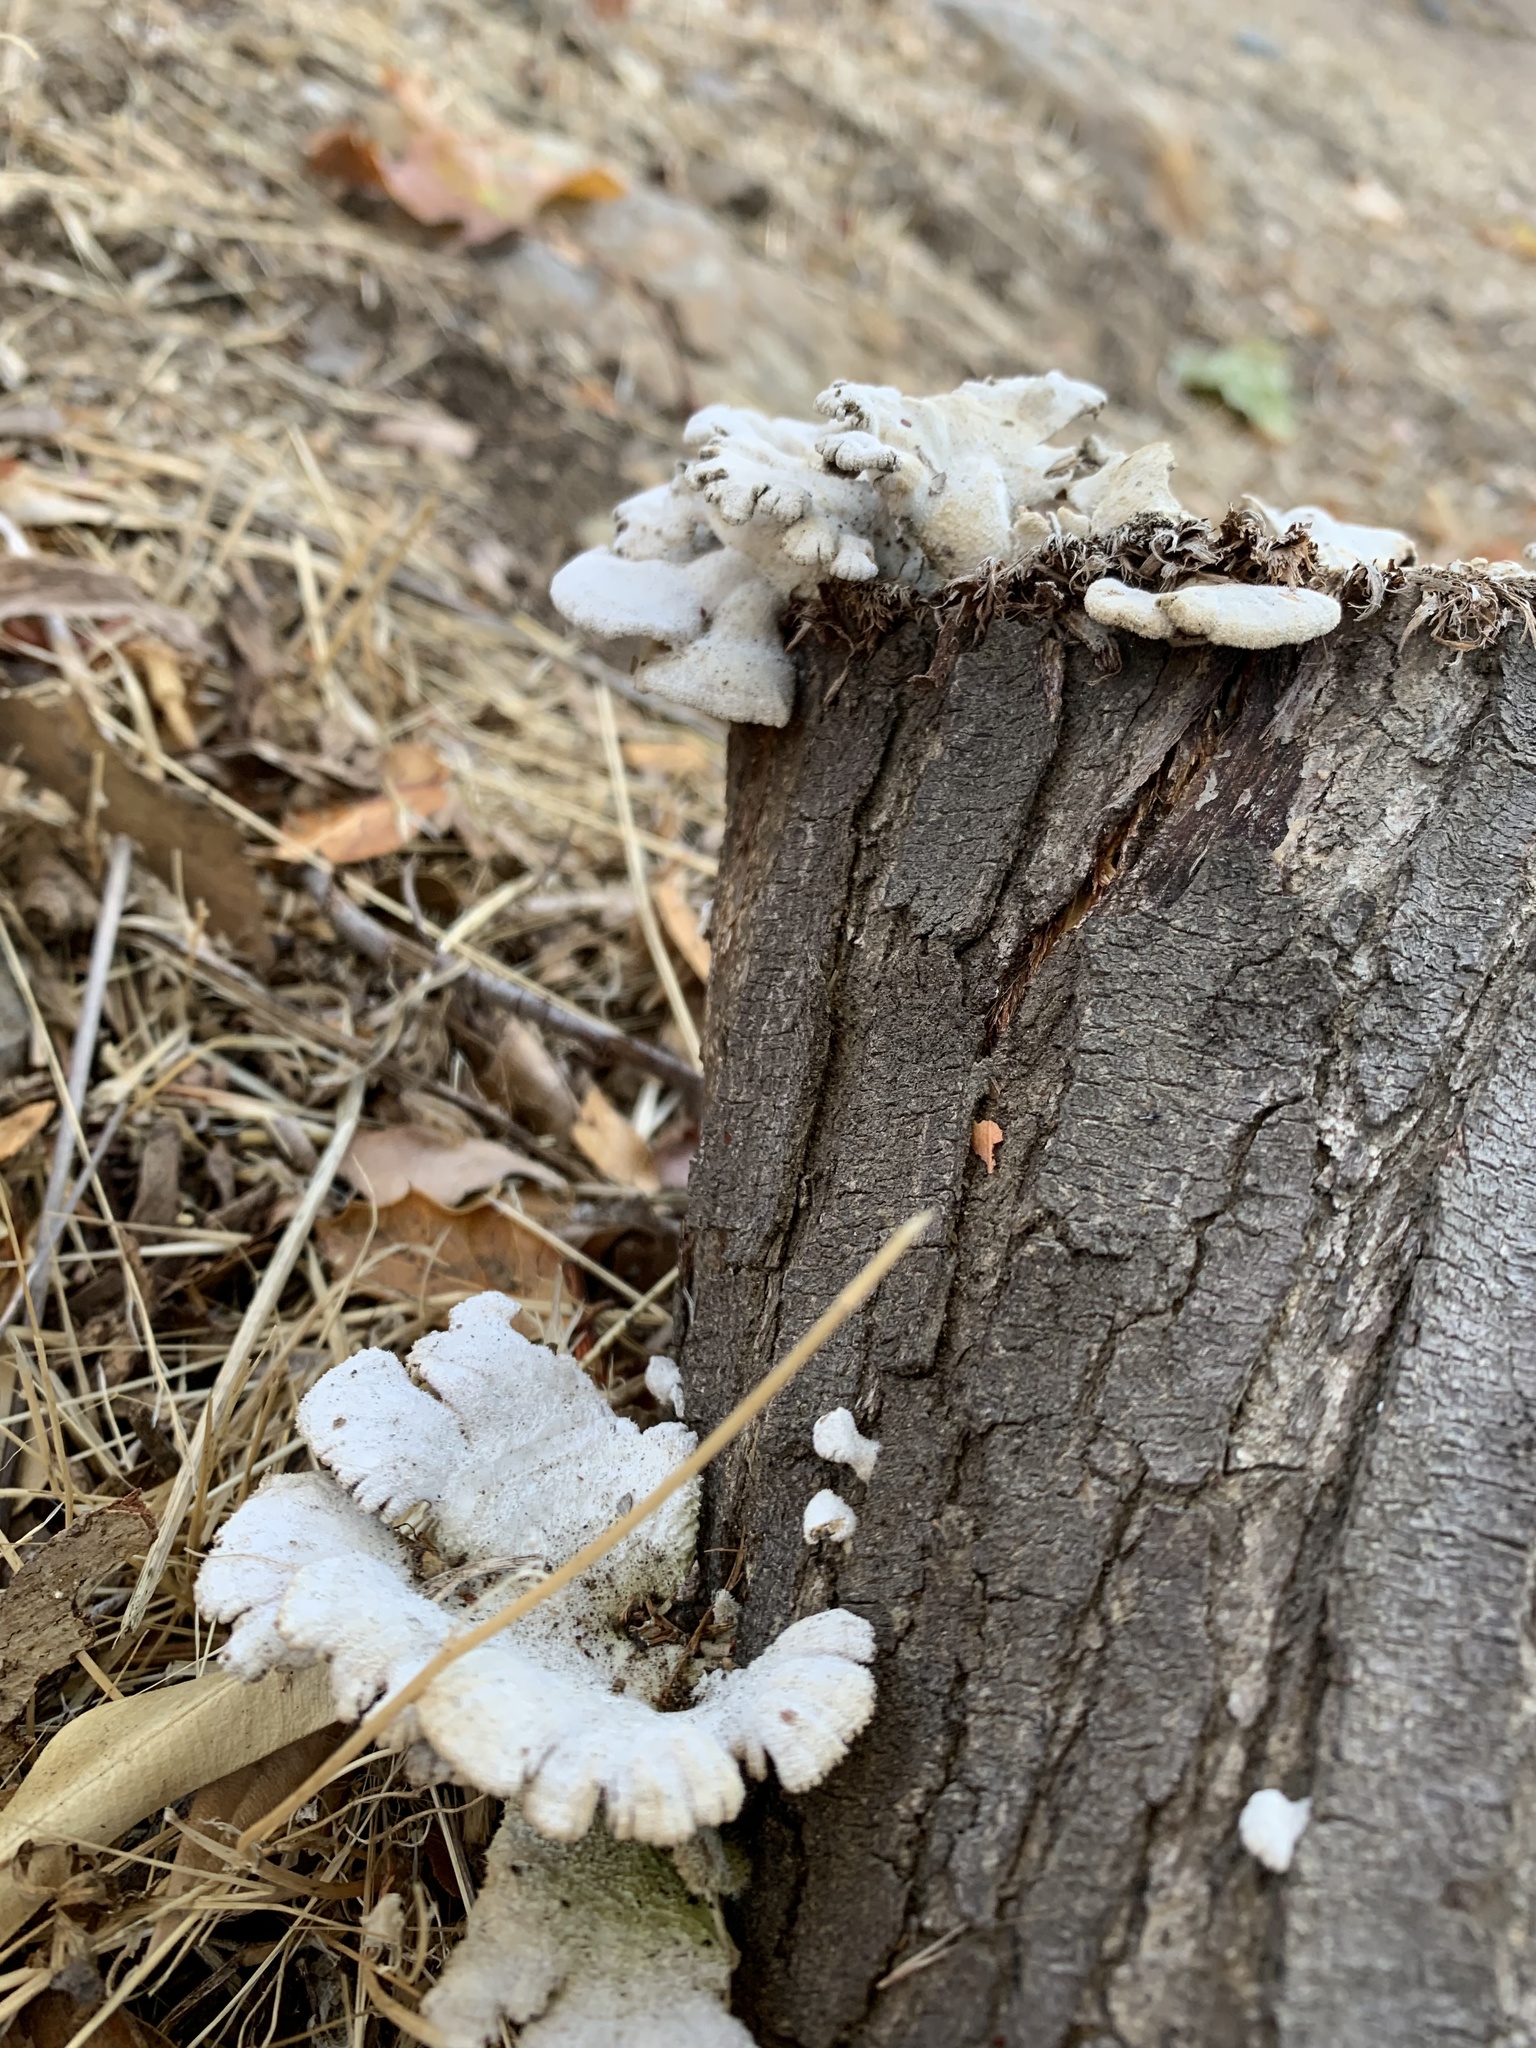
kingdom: Fungi
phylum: Basidiomycota
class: Agaricomycetes
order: Agaricales
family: Schizophyllaceae
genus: Schizophyllum
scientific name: Schizophyllum commune
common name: Common porecrust
